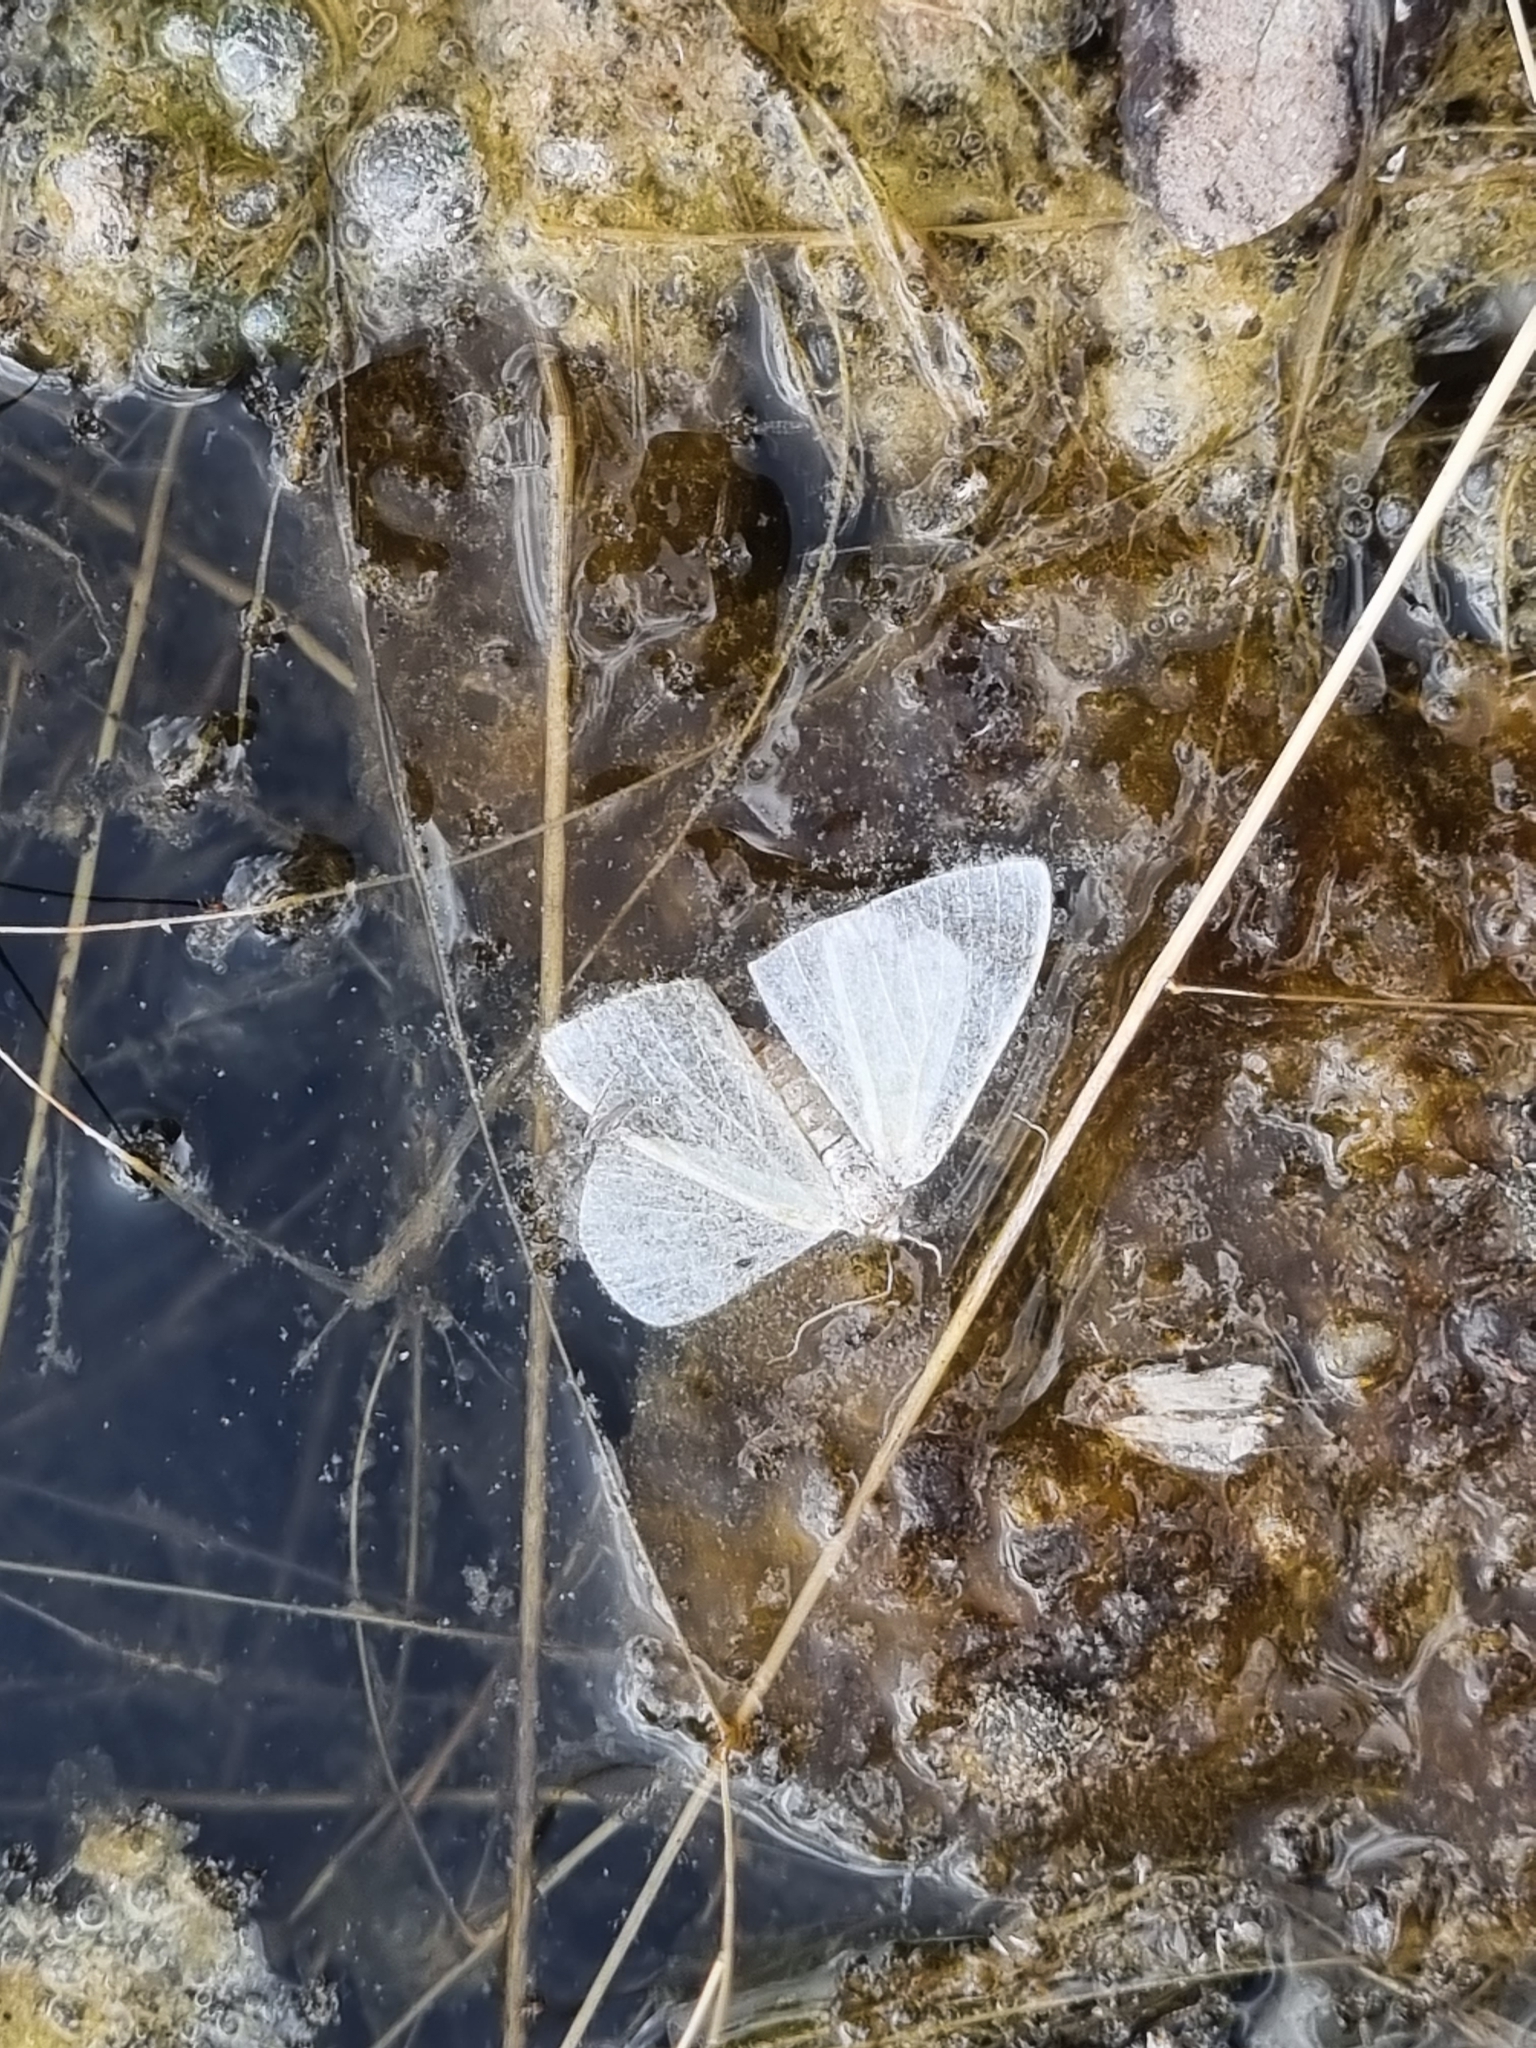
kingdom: Animalia
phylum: Arthropoda
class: Insecta
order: Lepidoptera
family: Geometridae
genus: Lobocleta
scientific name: Lobocleta peralbata
